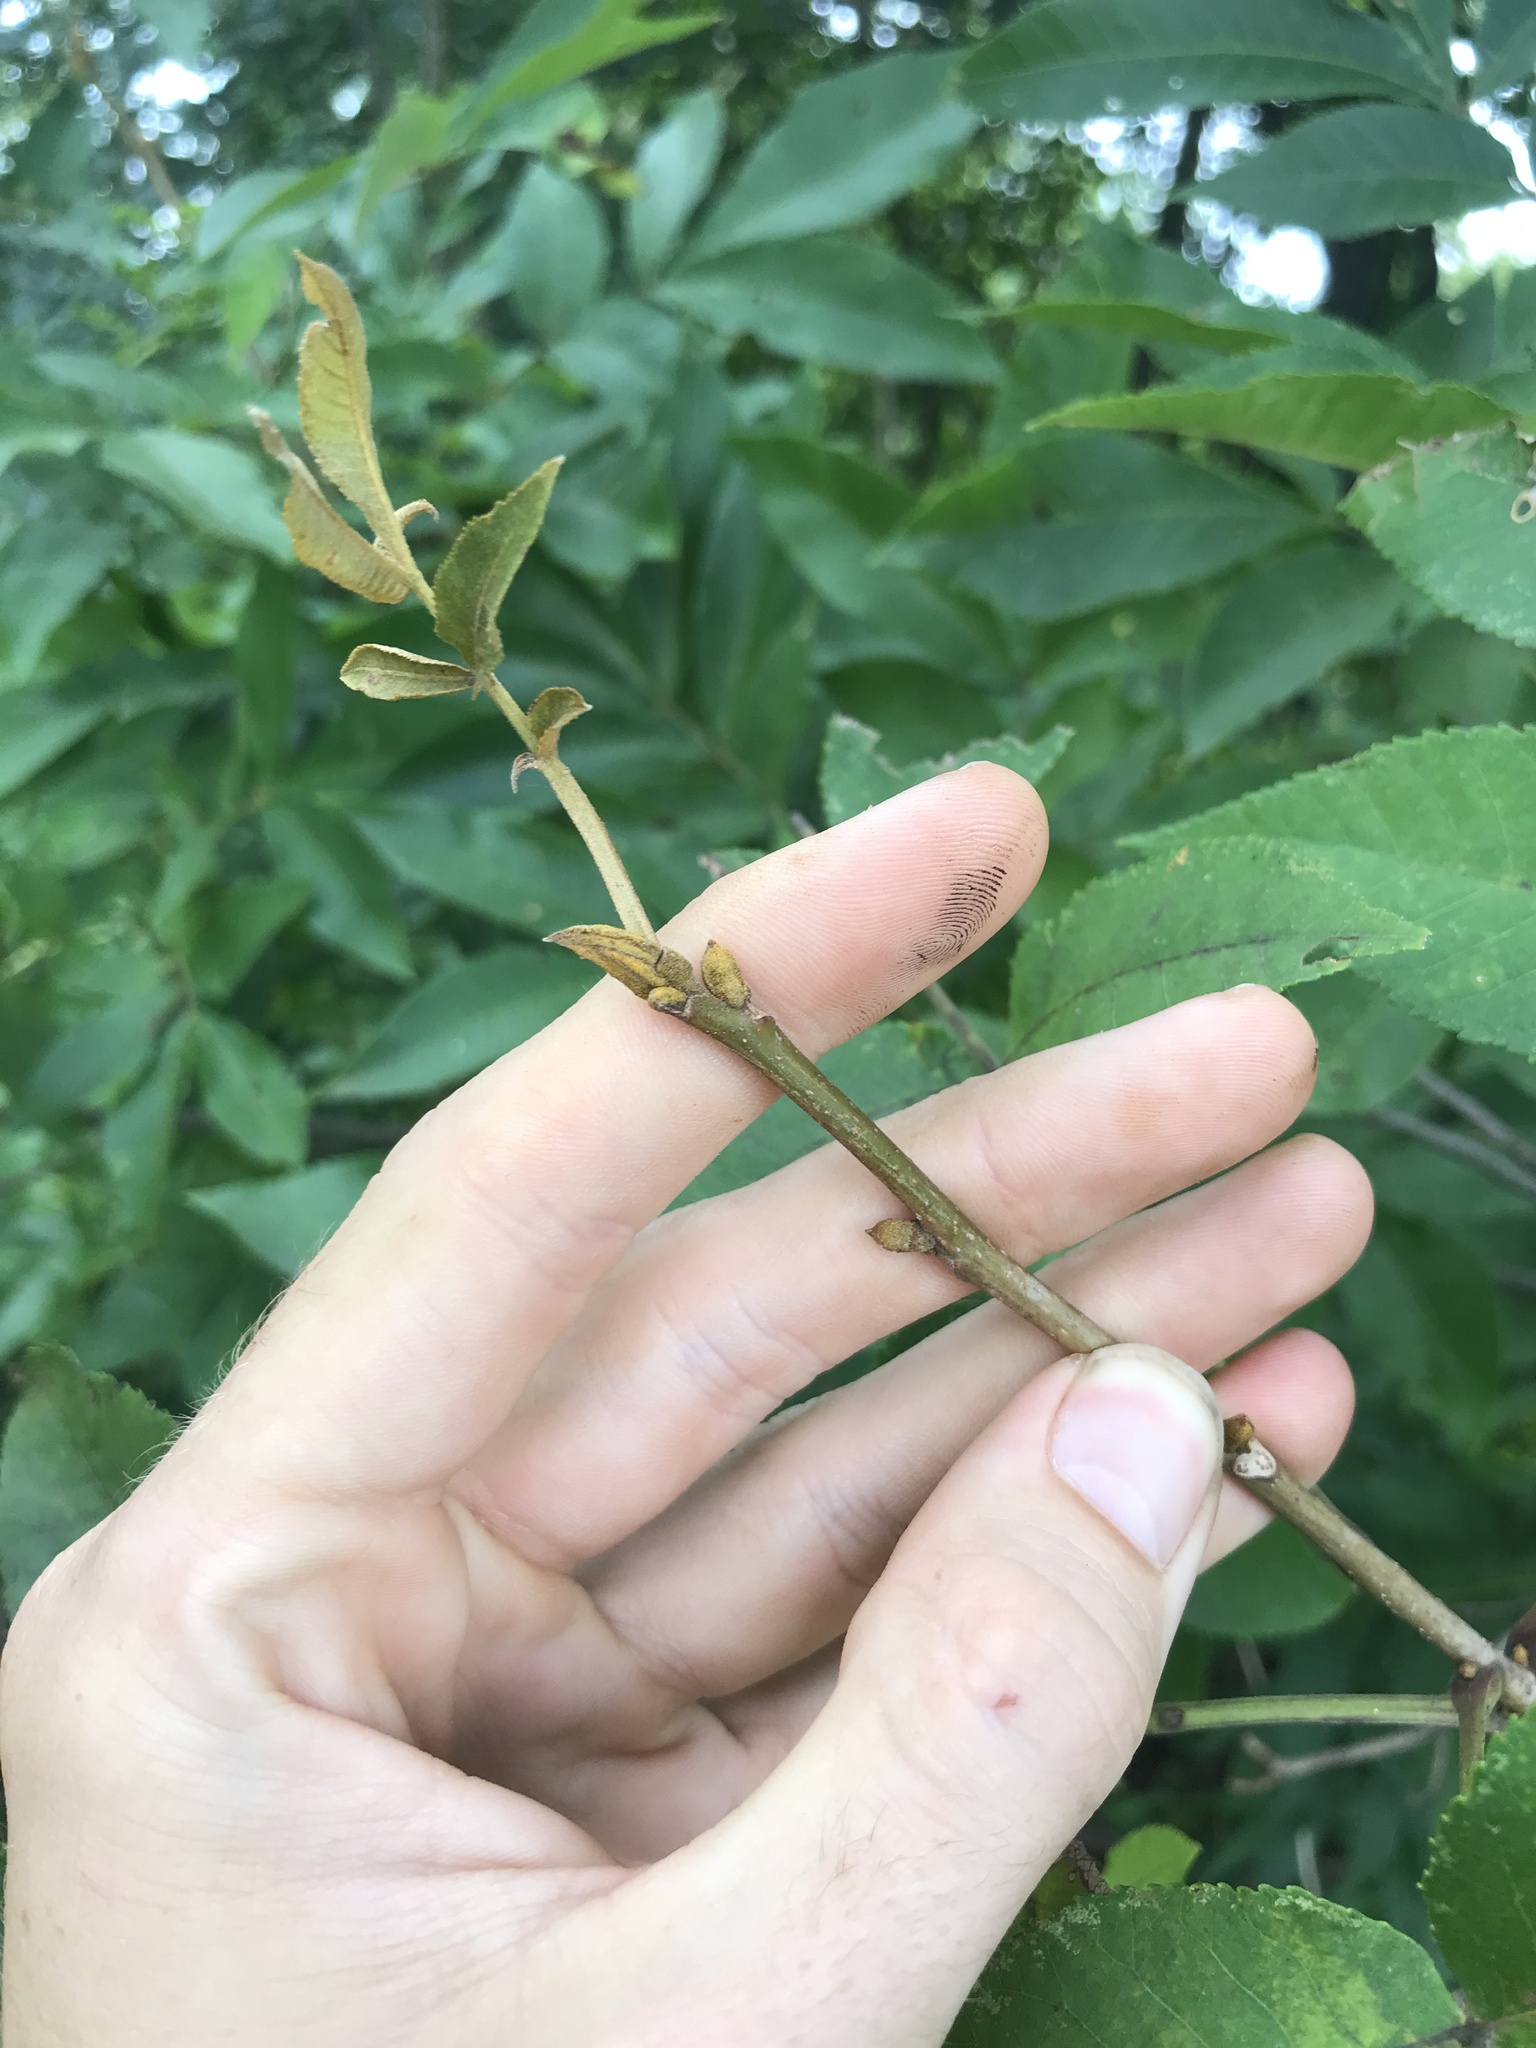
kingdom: Plantae
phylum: Tracheophyta
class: Magnoliopsida
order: Fagales
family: Juglandaceae
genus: Carya
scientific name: Carya cordiformis
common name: Bitternut hickory
